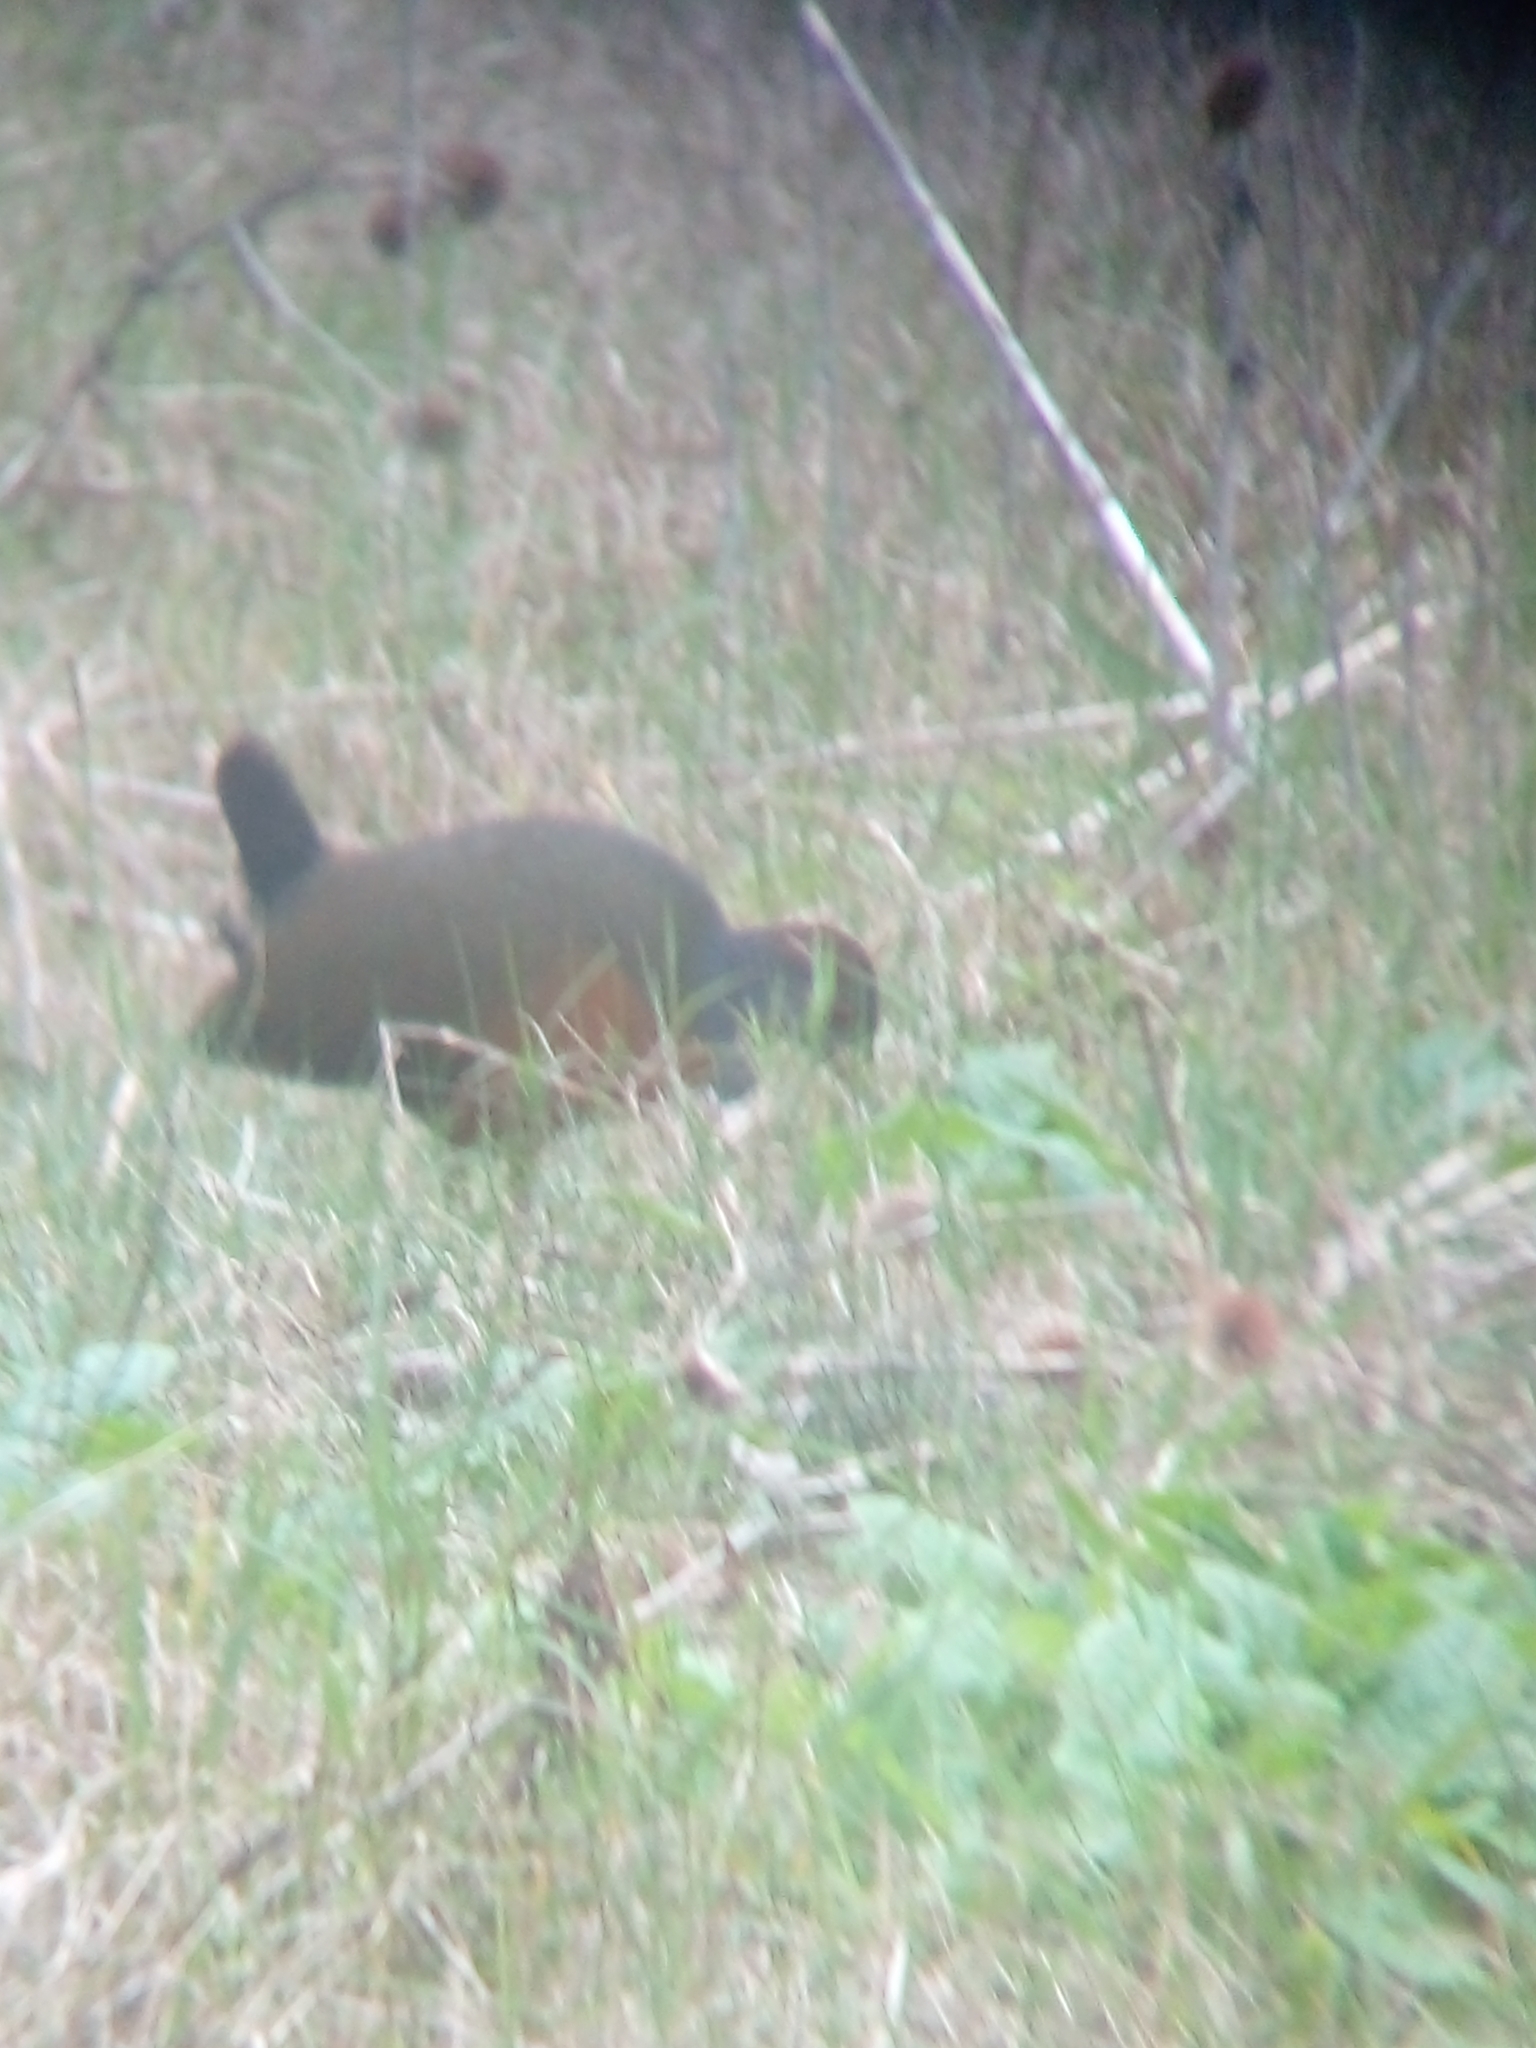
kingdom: Animalia
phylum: Chordata
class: Aves
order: Gruiformes
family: Rallidae
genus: Aramides
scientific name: Aramides cajanea
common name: Gray-necked wood-rail
